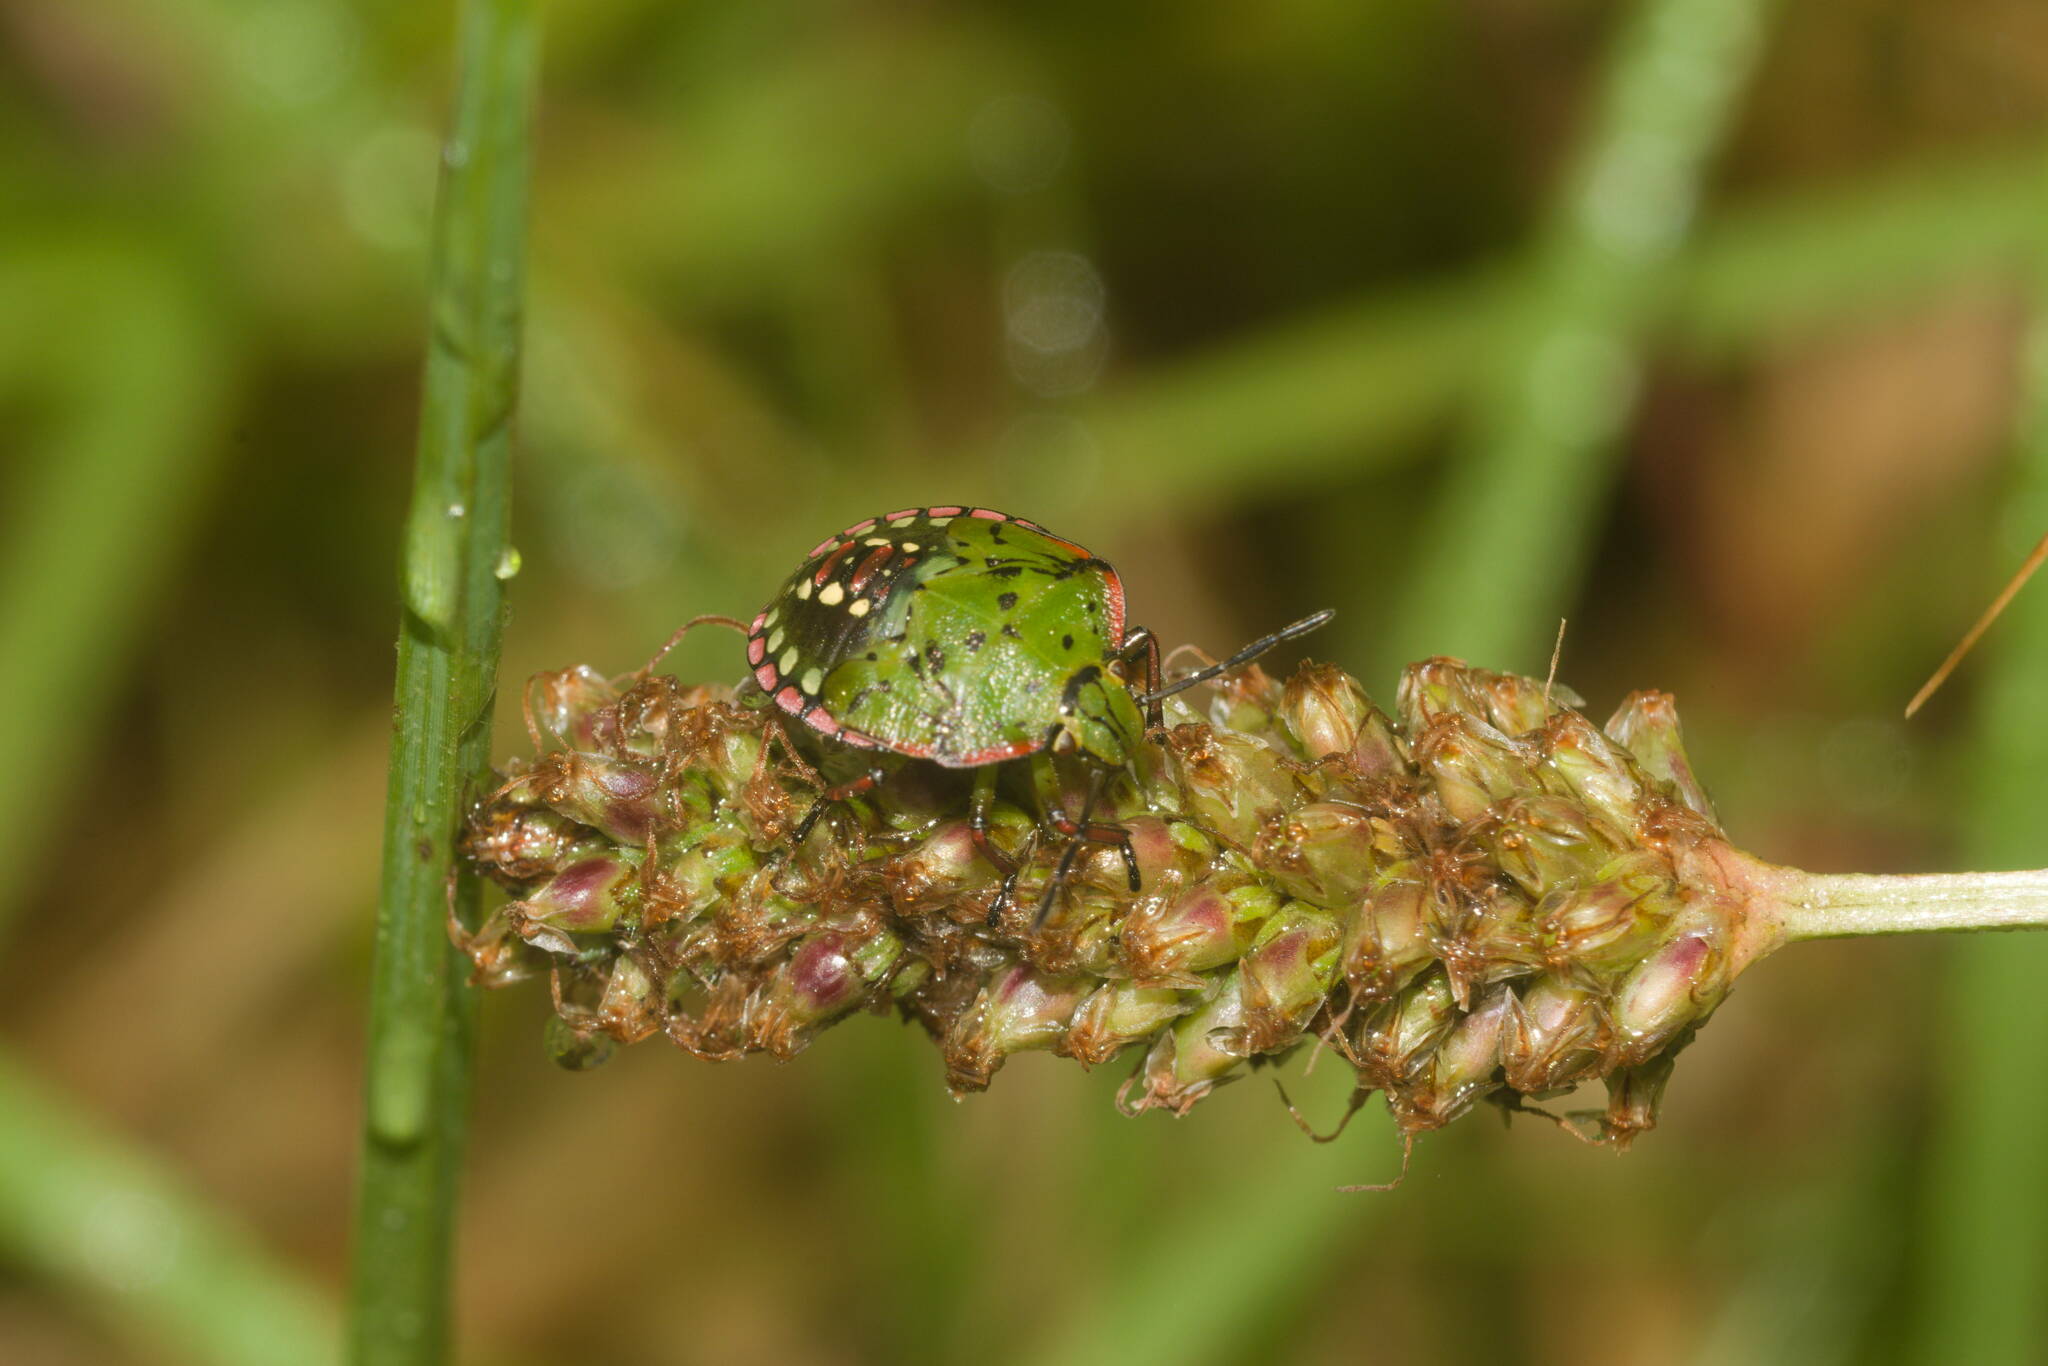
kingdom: Animalia
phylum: Arthropoda
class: Insecta
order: Hemiptera
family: Pentatomidae
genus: Nezara
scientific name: Nezara viridula
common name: Southern green stink bug
